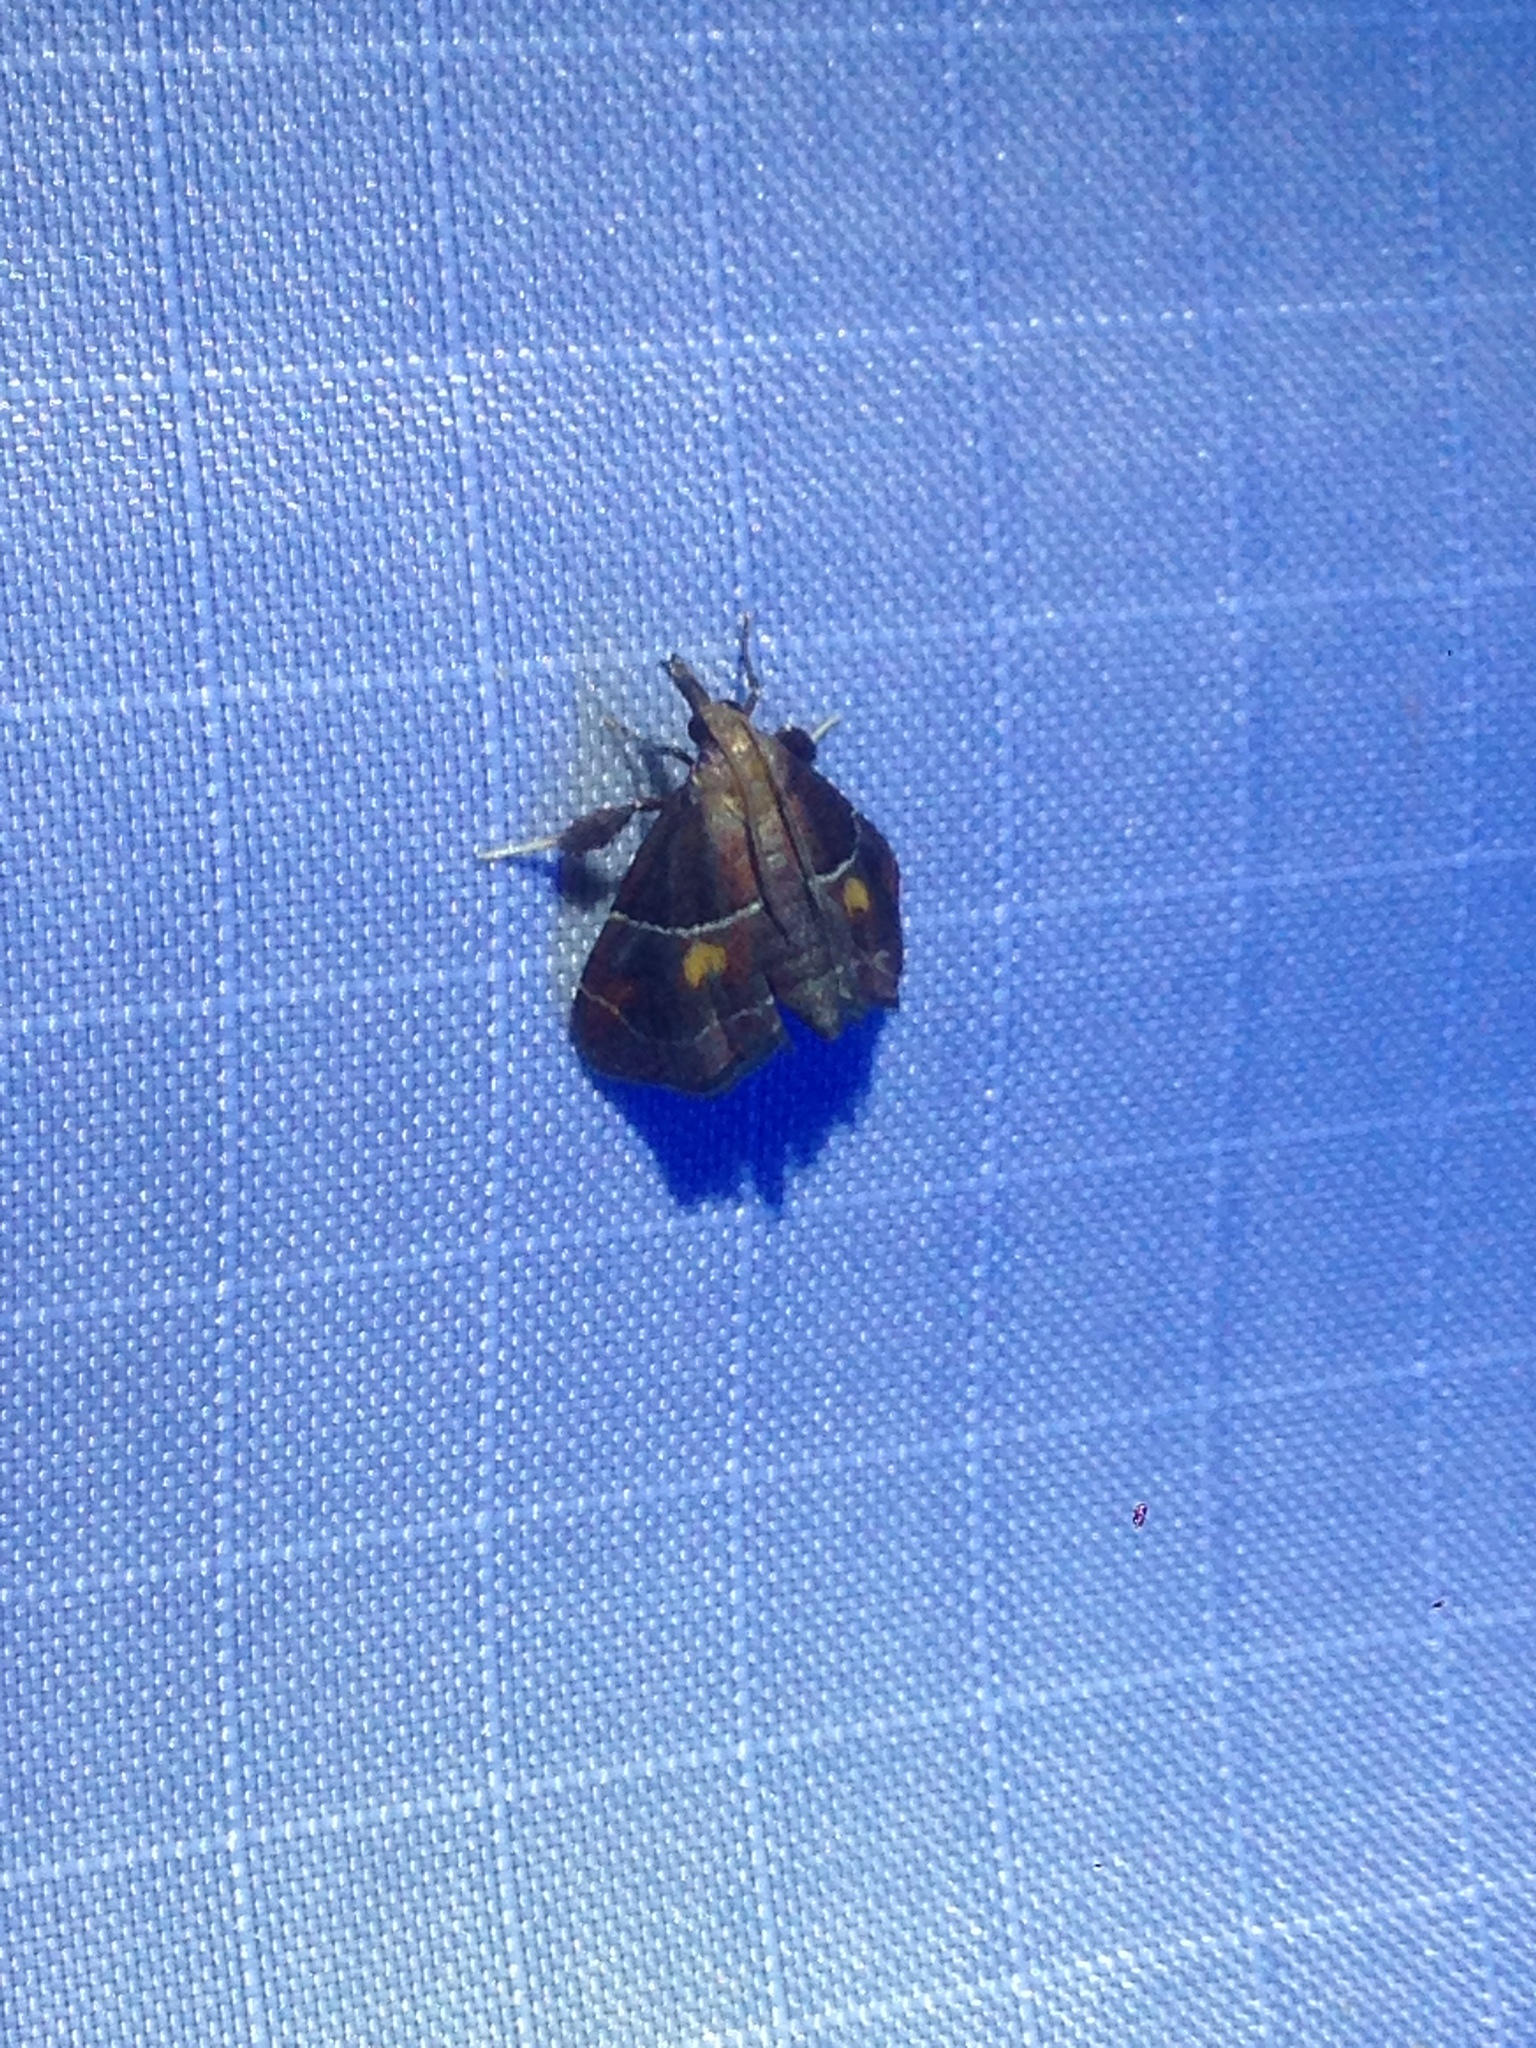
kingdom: Animalia
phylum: Arthropoda
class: Insecta
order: Lepidoptera
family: Pyralidae
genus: Penthesilea
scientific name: Penthesilea sacculalis
